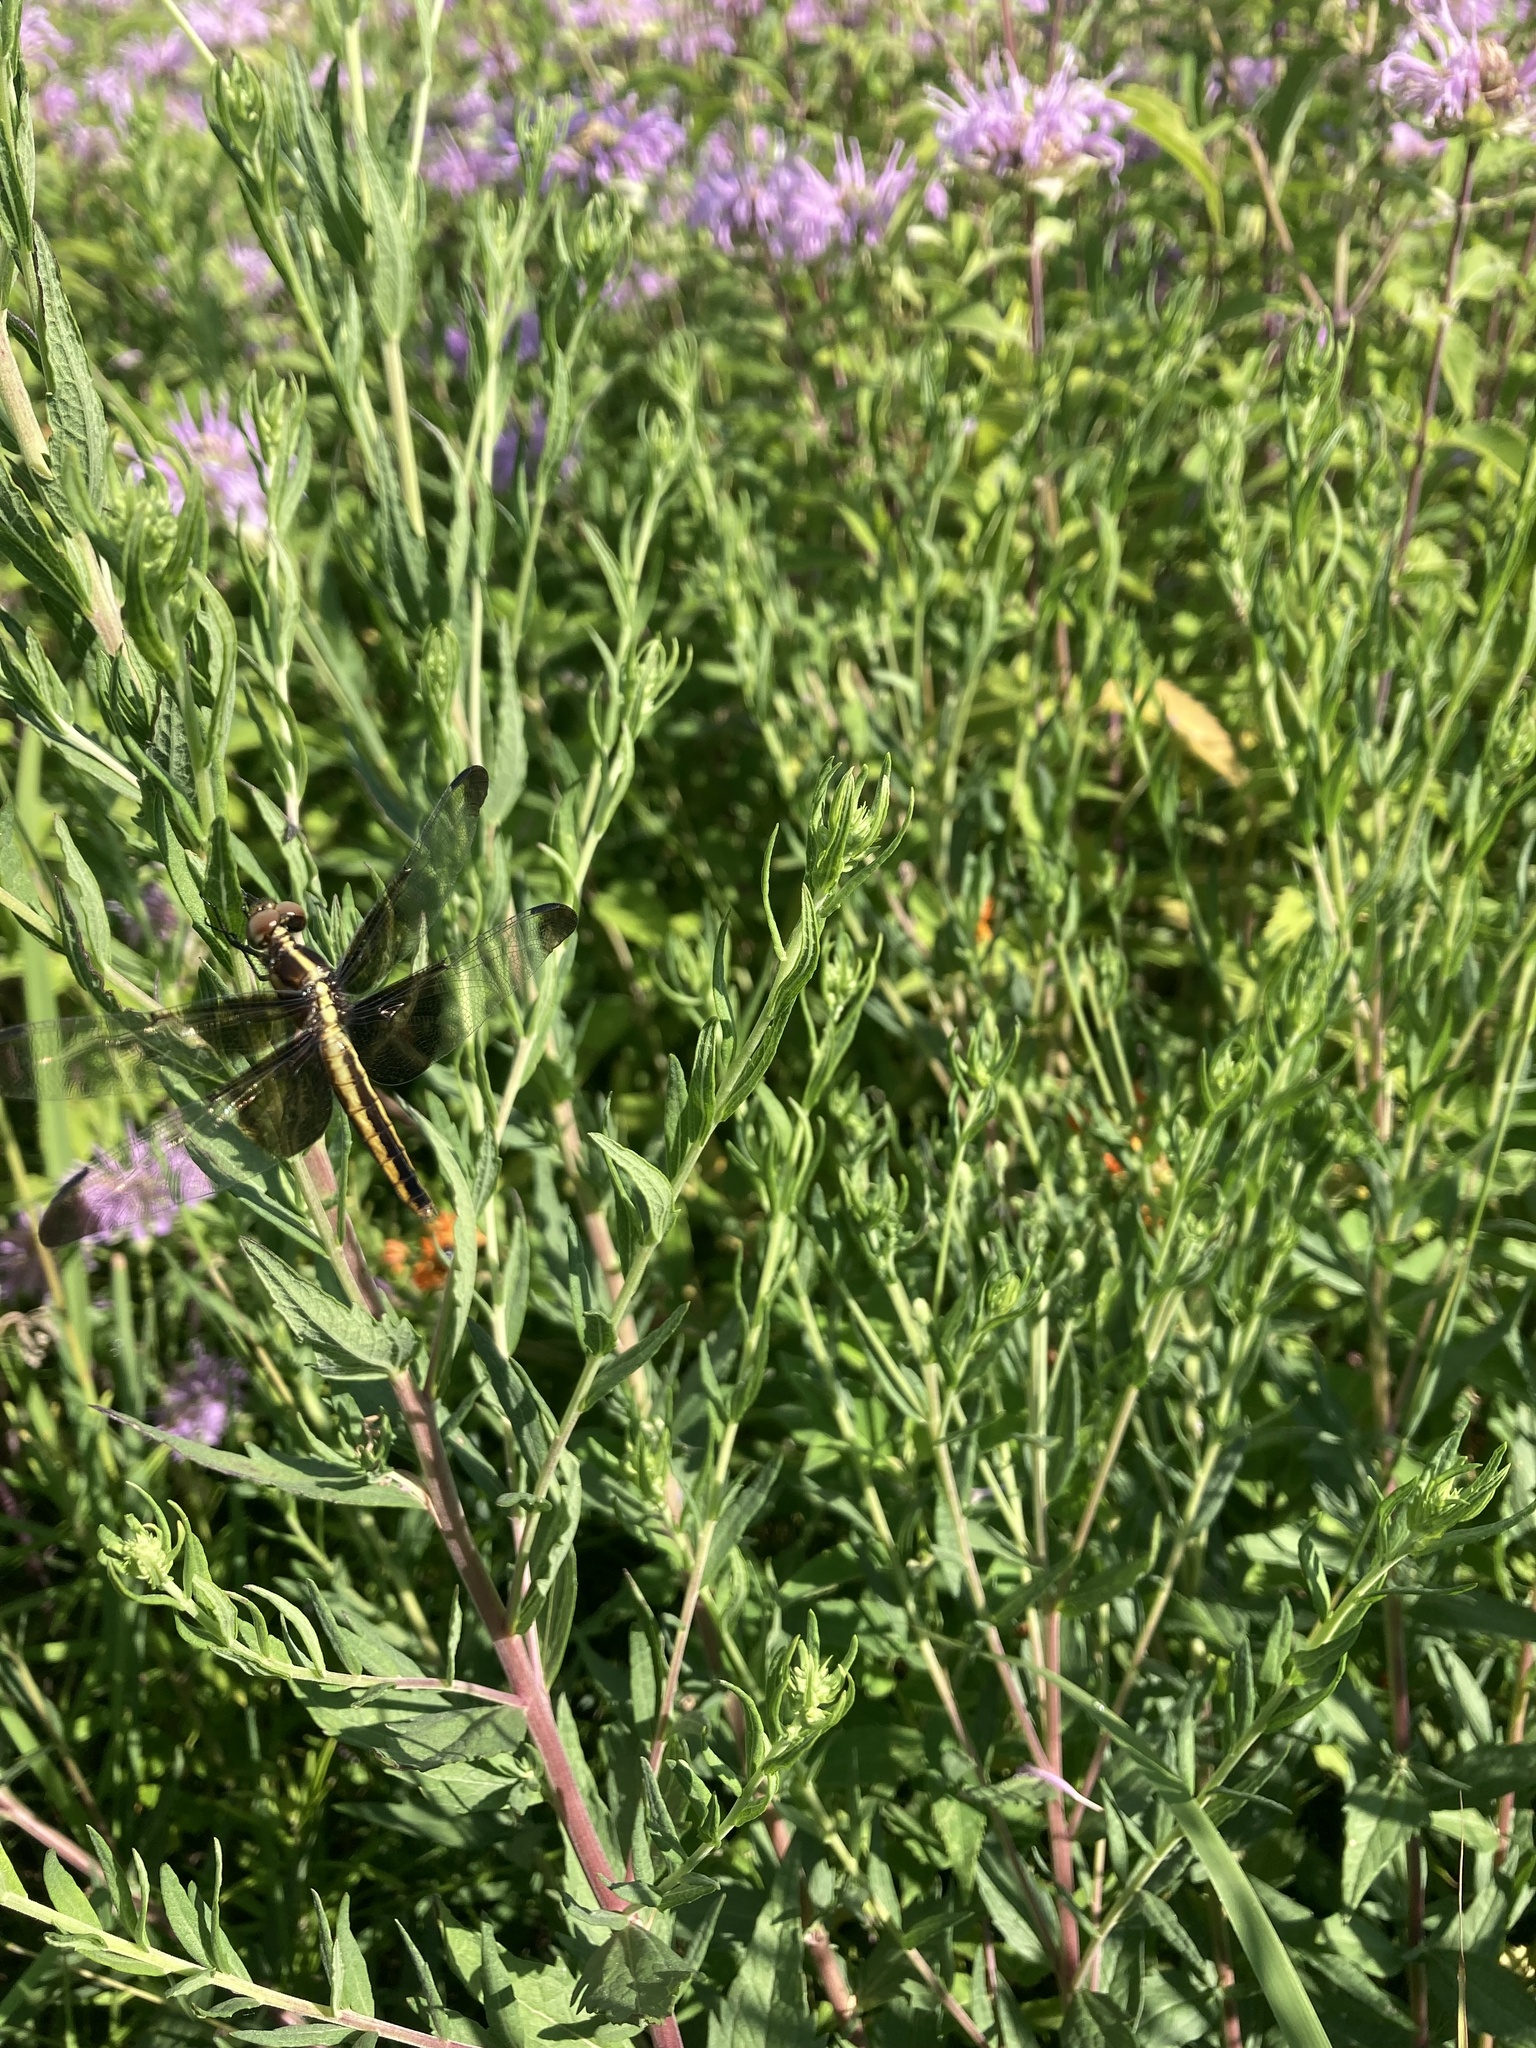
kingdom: Animalia
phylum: Arthropoda
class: Insecta
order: Odonata
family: Libellulidae
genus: Libellula
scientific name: Libellula luctuosa
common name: Widow skimmer
